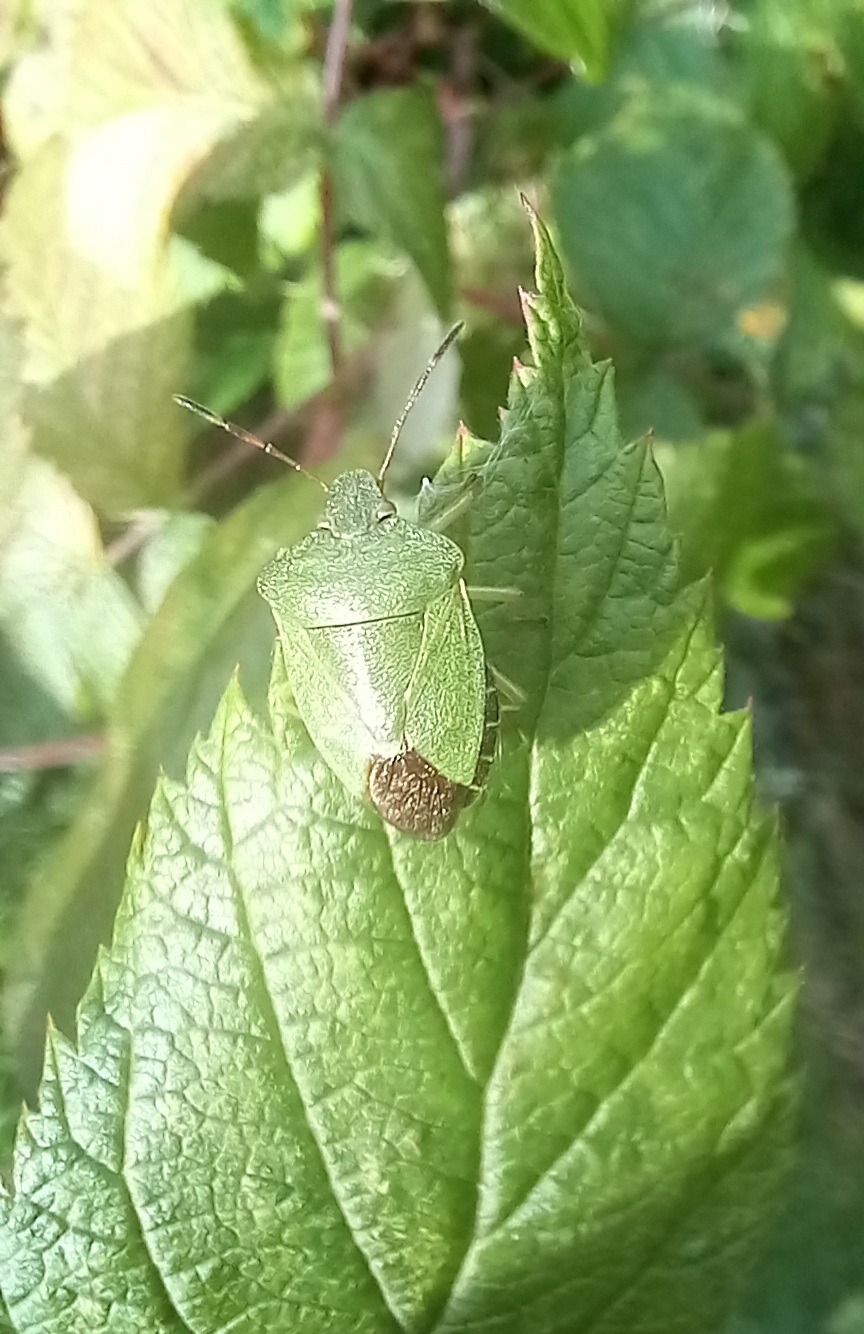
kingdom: Animalia
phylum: Arthropoda
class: Insecta
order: Hemiptera
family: Pentatomidae
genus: Palomena
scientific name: Palomena prasina
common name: Green shieldbug
